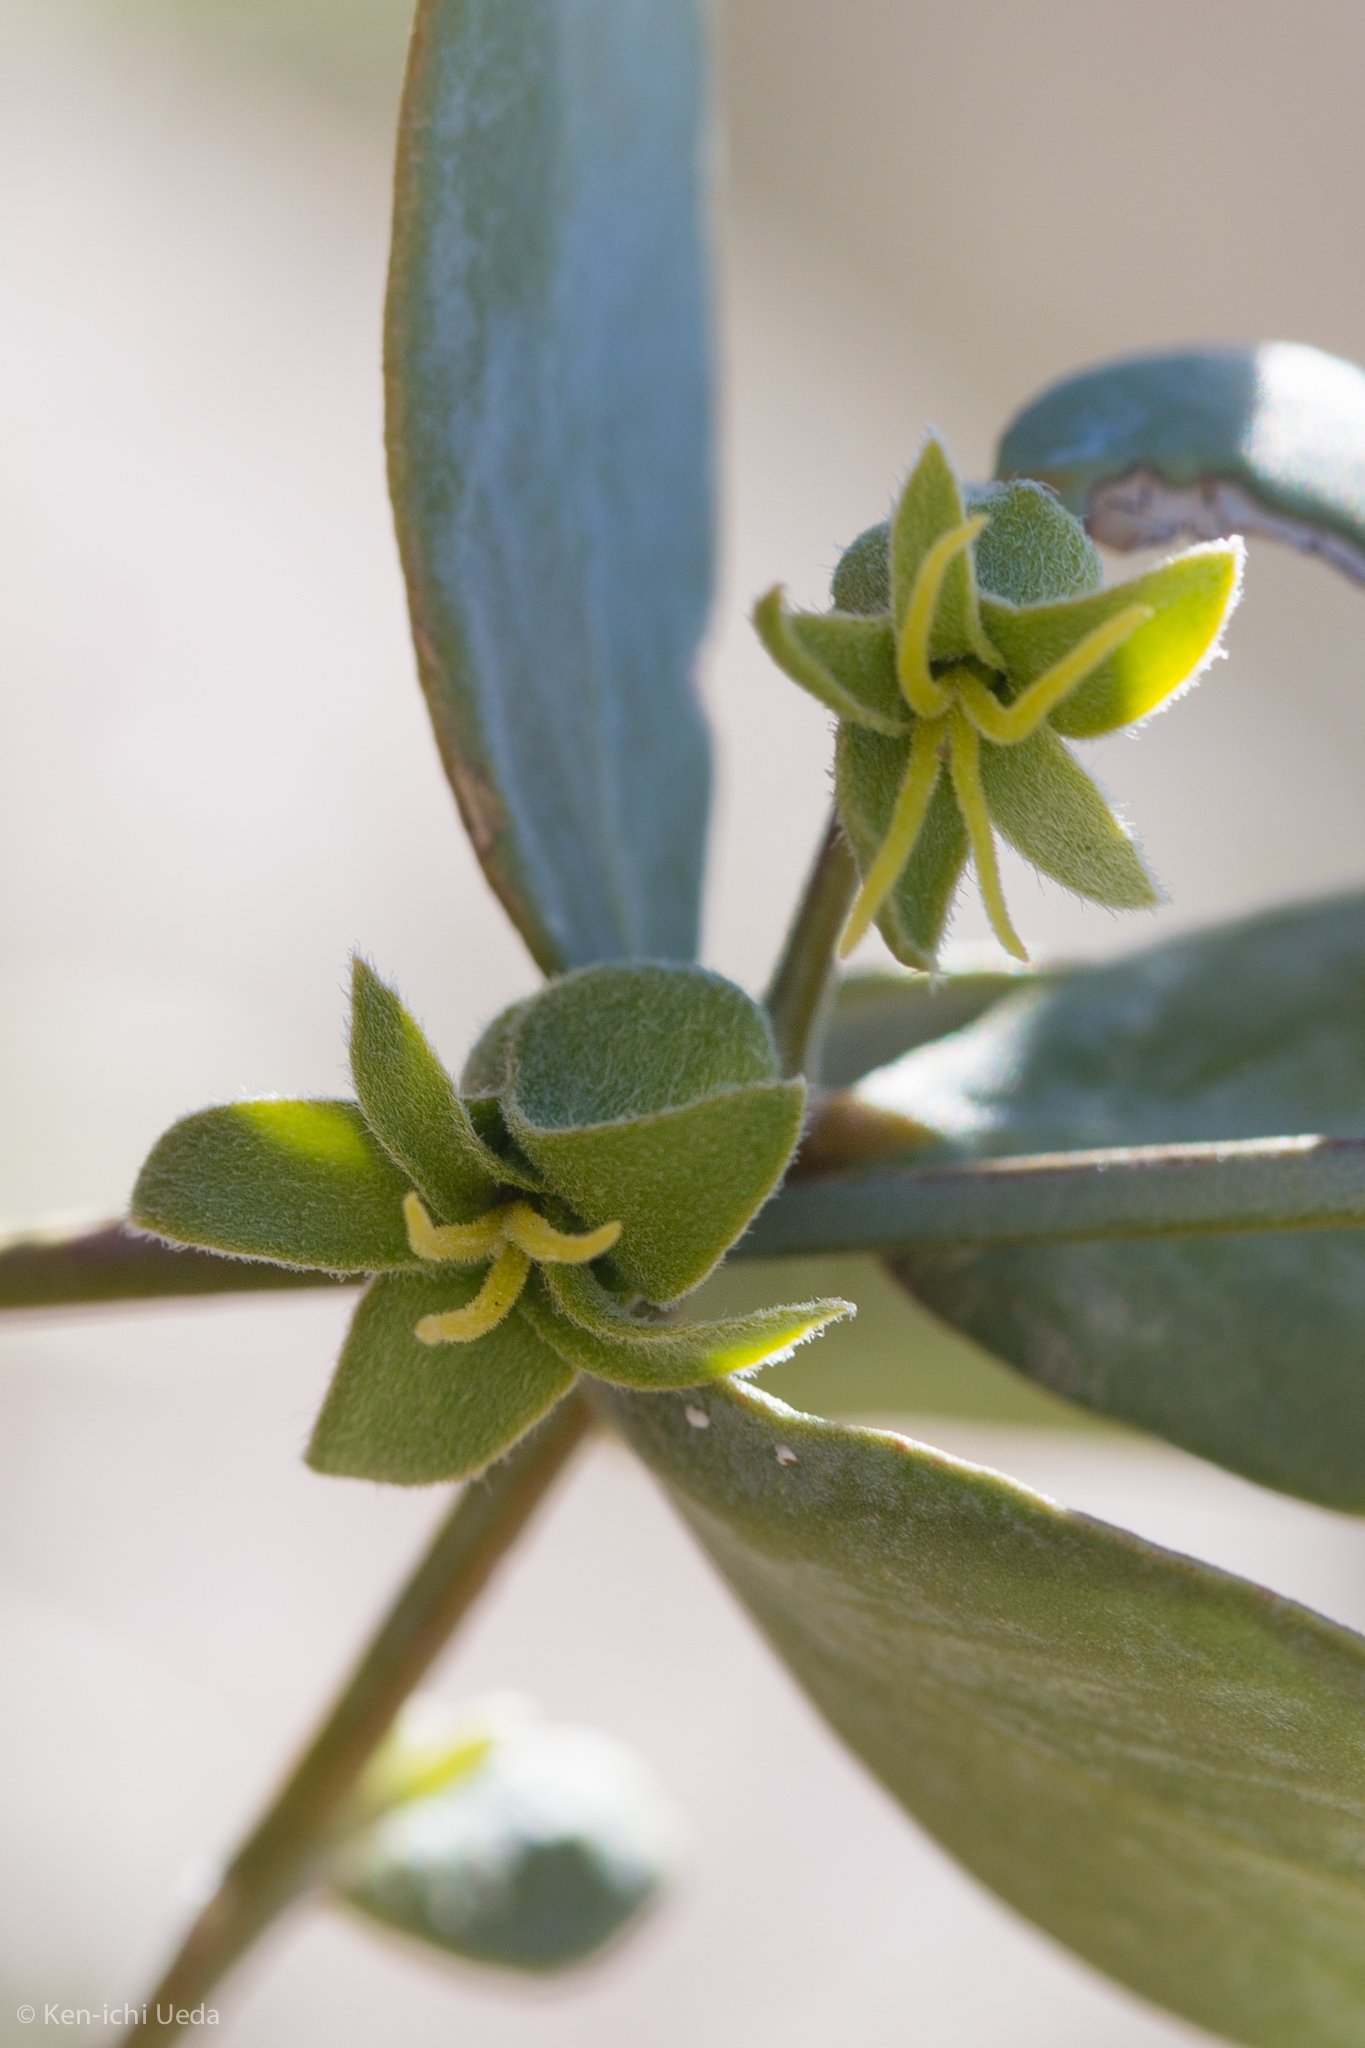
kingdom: Plantae
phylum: Tracheophyta
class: Magnoliopsida
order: Caryophyllales
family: Simmondsiaceae
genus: Simmondsia
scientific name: Simmondsia chinensis
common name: Jojoba
